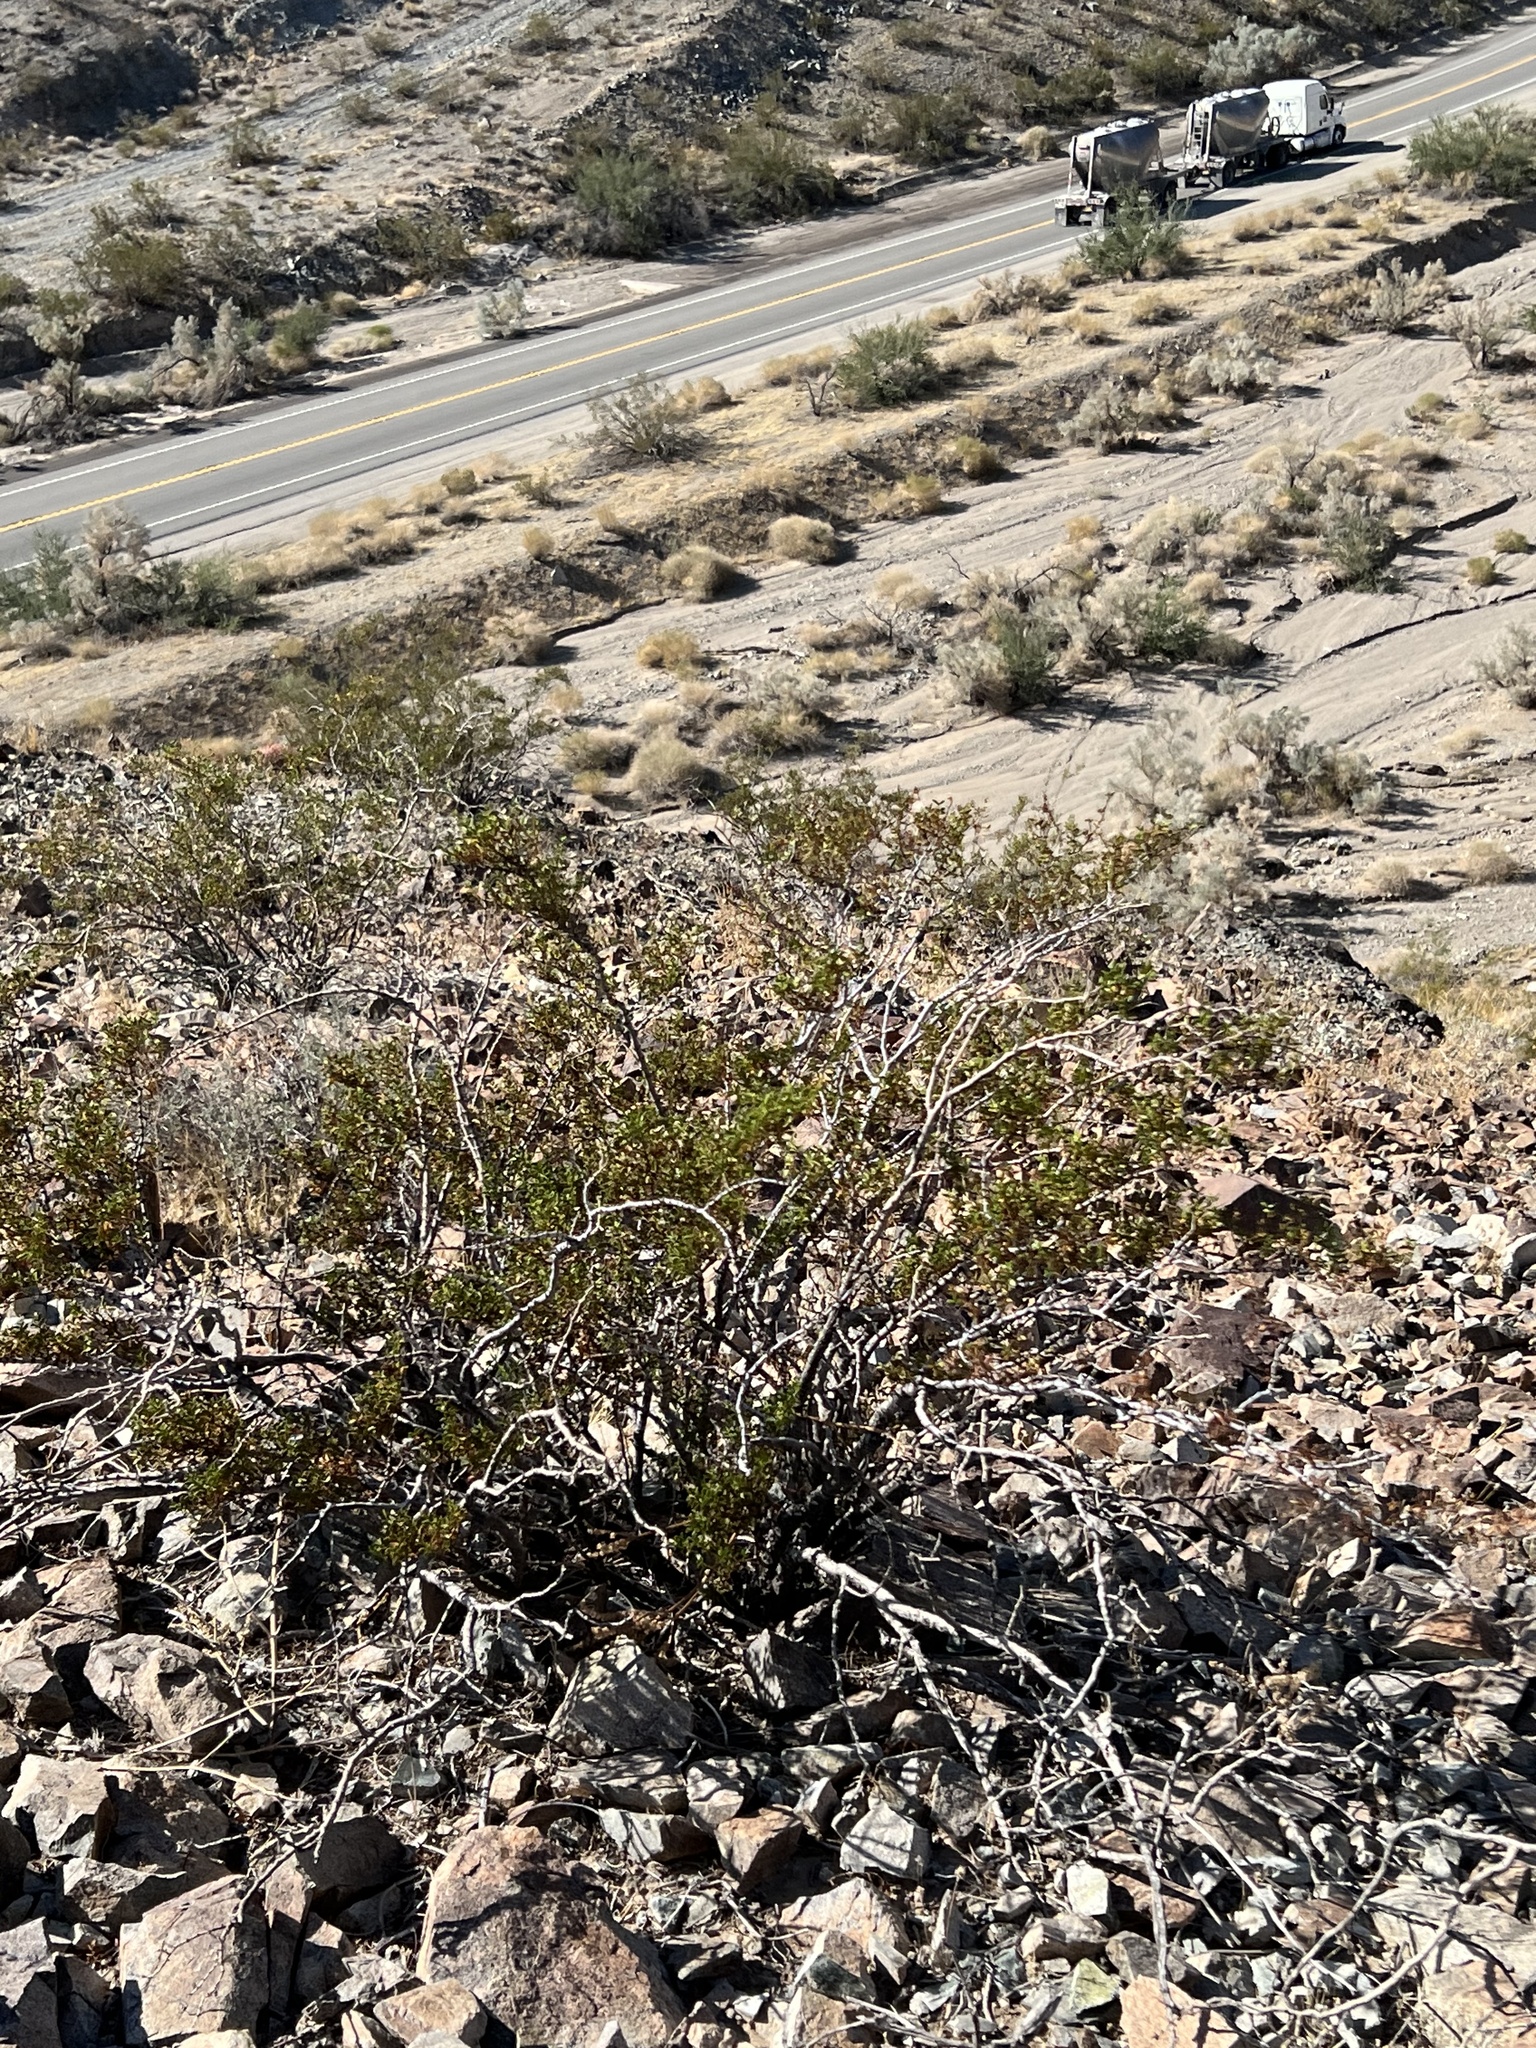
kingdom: Plantae
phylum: Tracheophyta
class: Magnoliopsida
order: Zygophyllales
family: Zygophyllaceae
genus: Larrea
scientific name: Larrea tridentata
